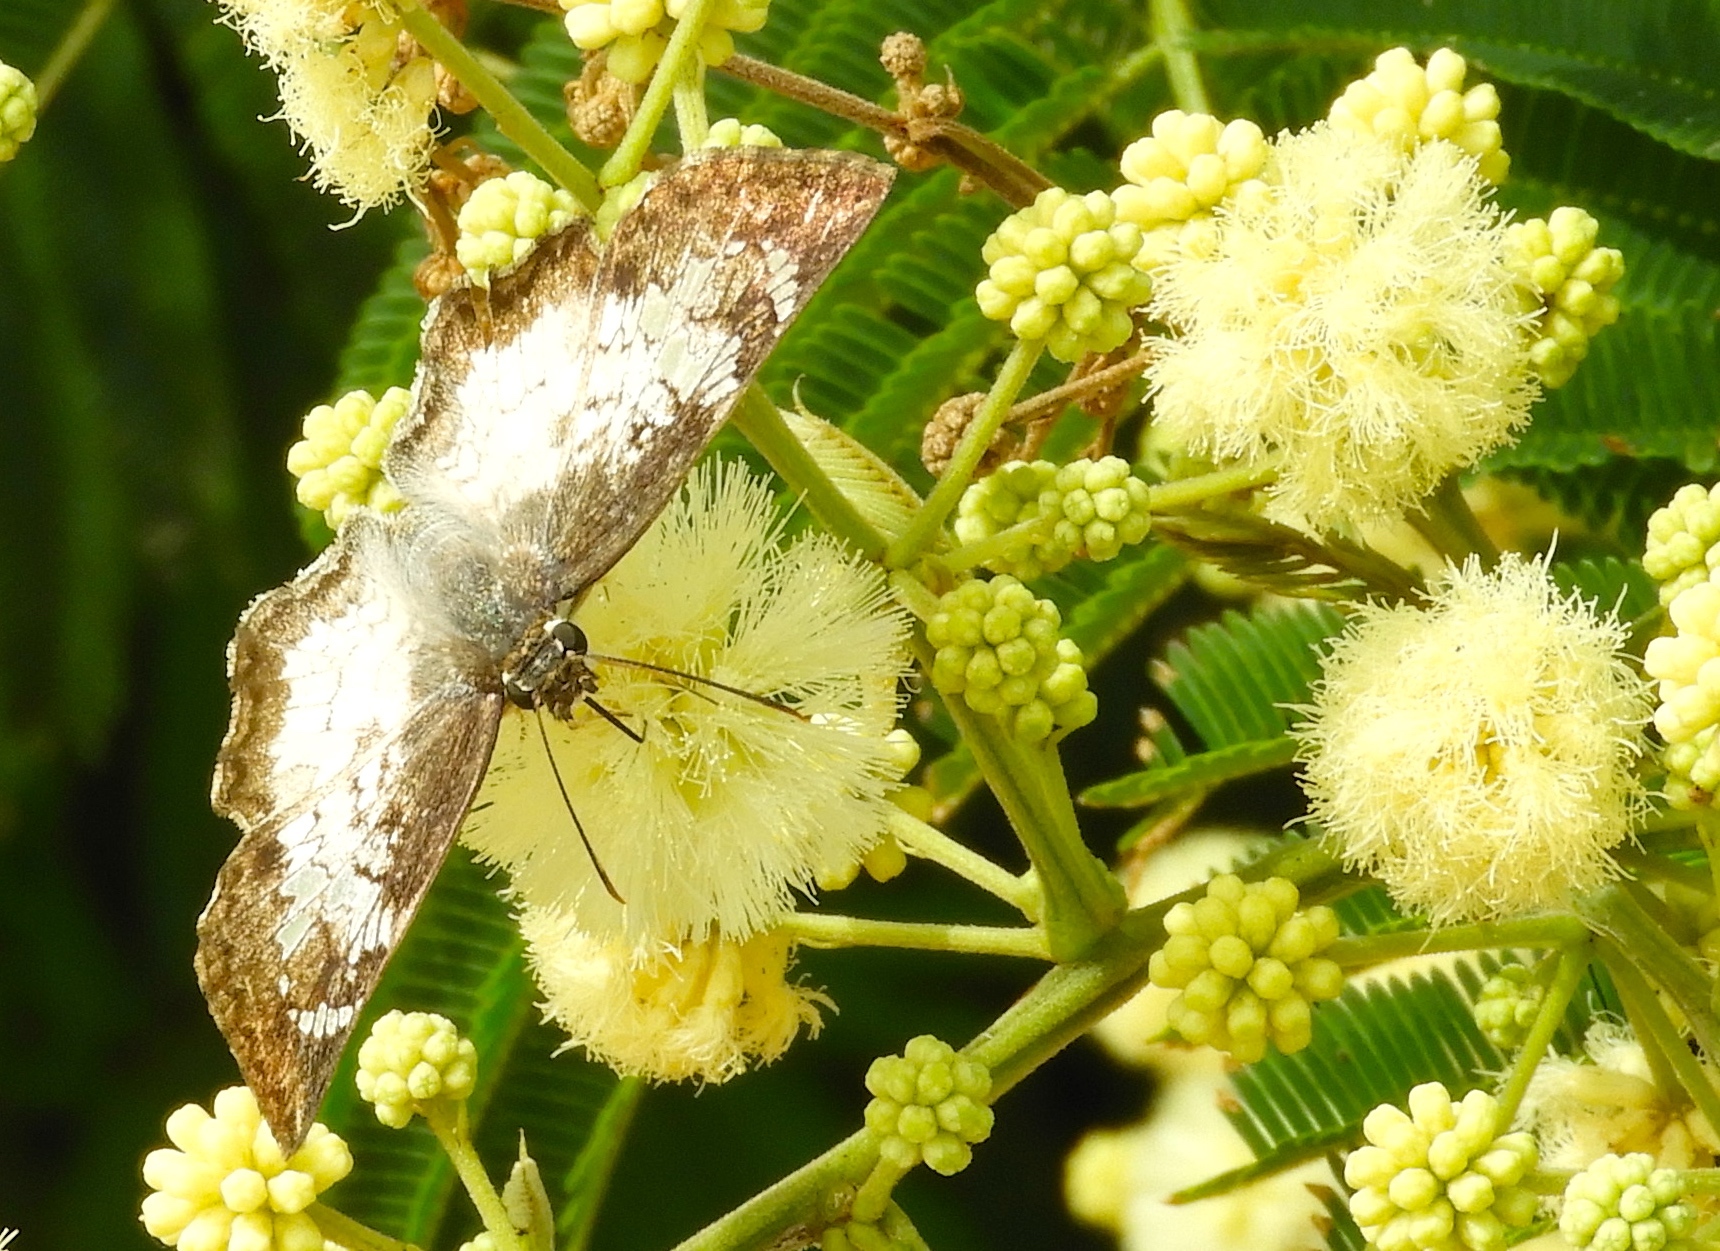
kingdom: Animalia
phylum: Arthropoda
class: Insecta
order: Lepidoptera
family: Hesperiidae
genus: Antigonus
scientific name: Antigonus emorsa
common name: White spurwing
